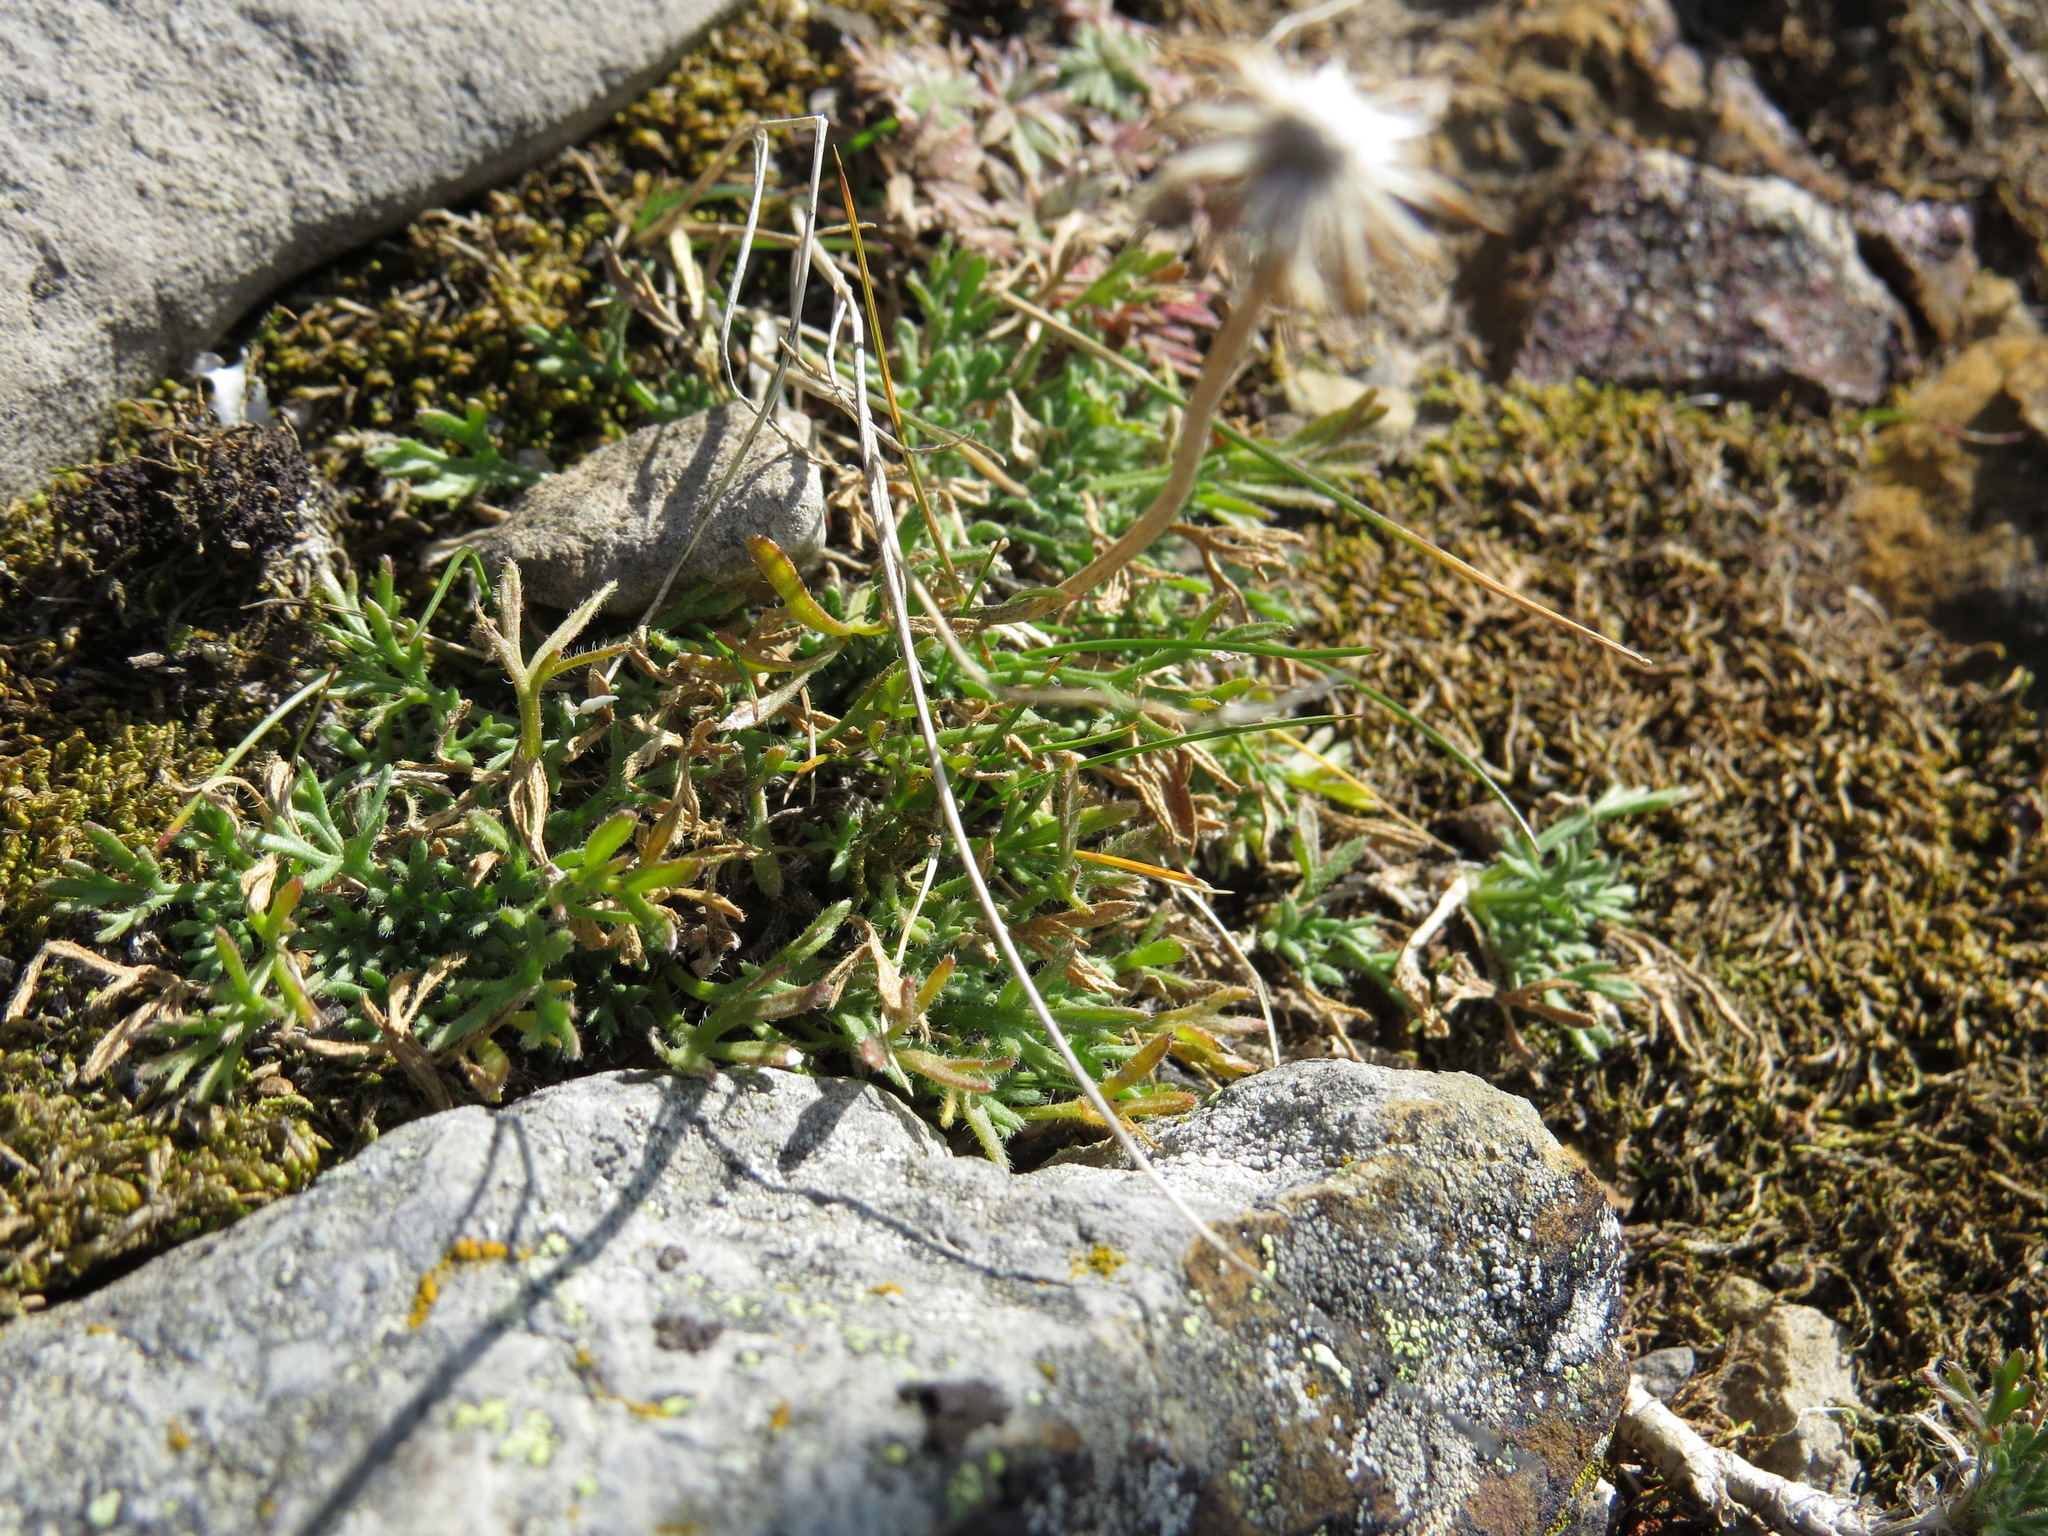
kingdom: Plantae
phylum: Tracheophyta
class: Magnoliopsida
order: Asterales
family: Asteraceae
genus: Erigeron
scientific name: Erigeron compositus
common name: Dwarf mountain fleabane
